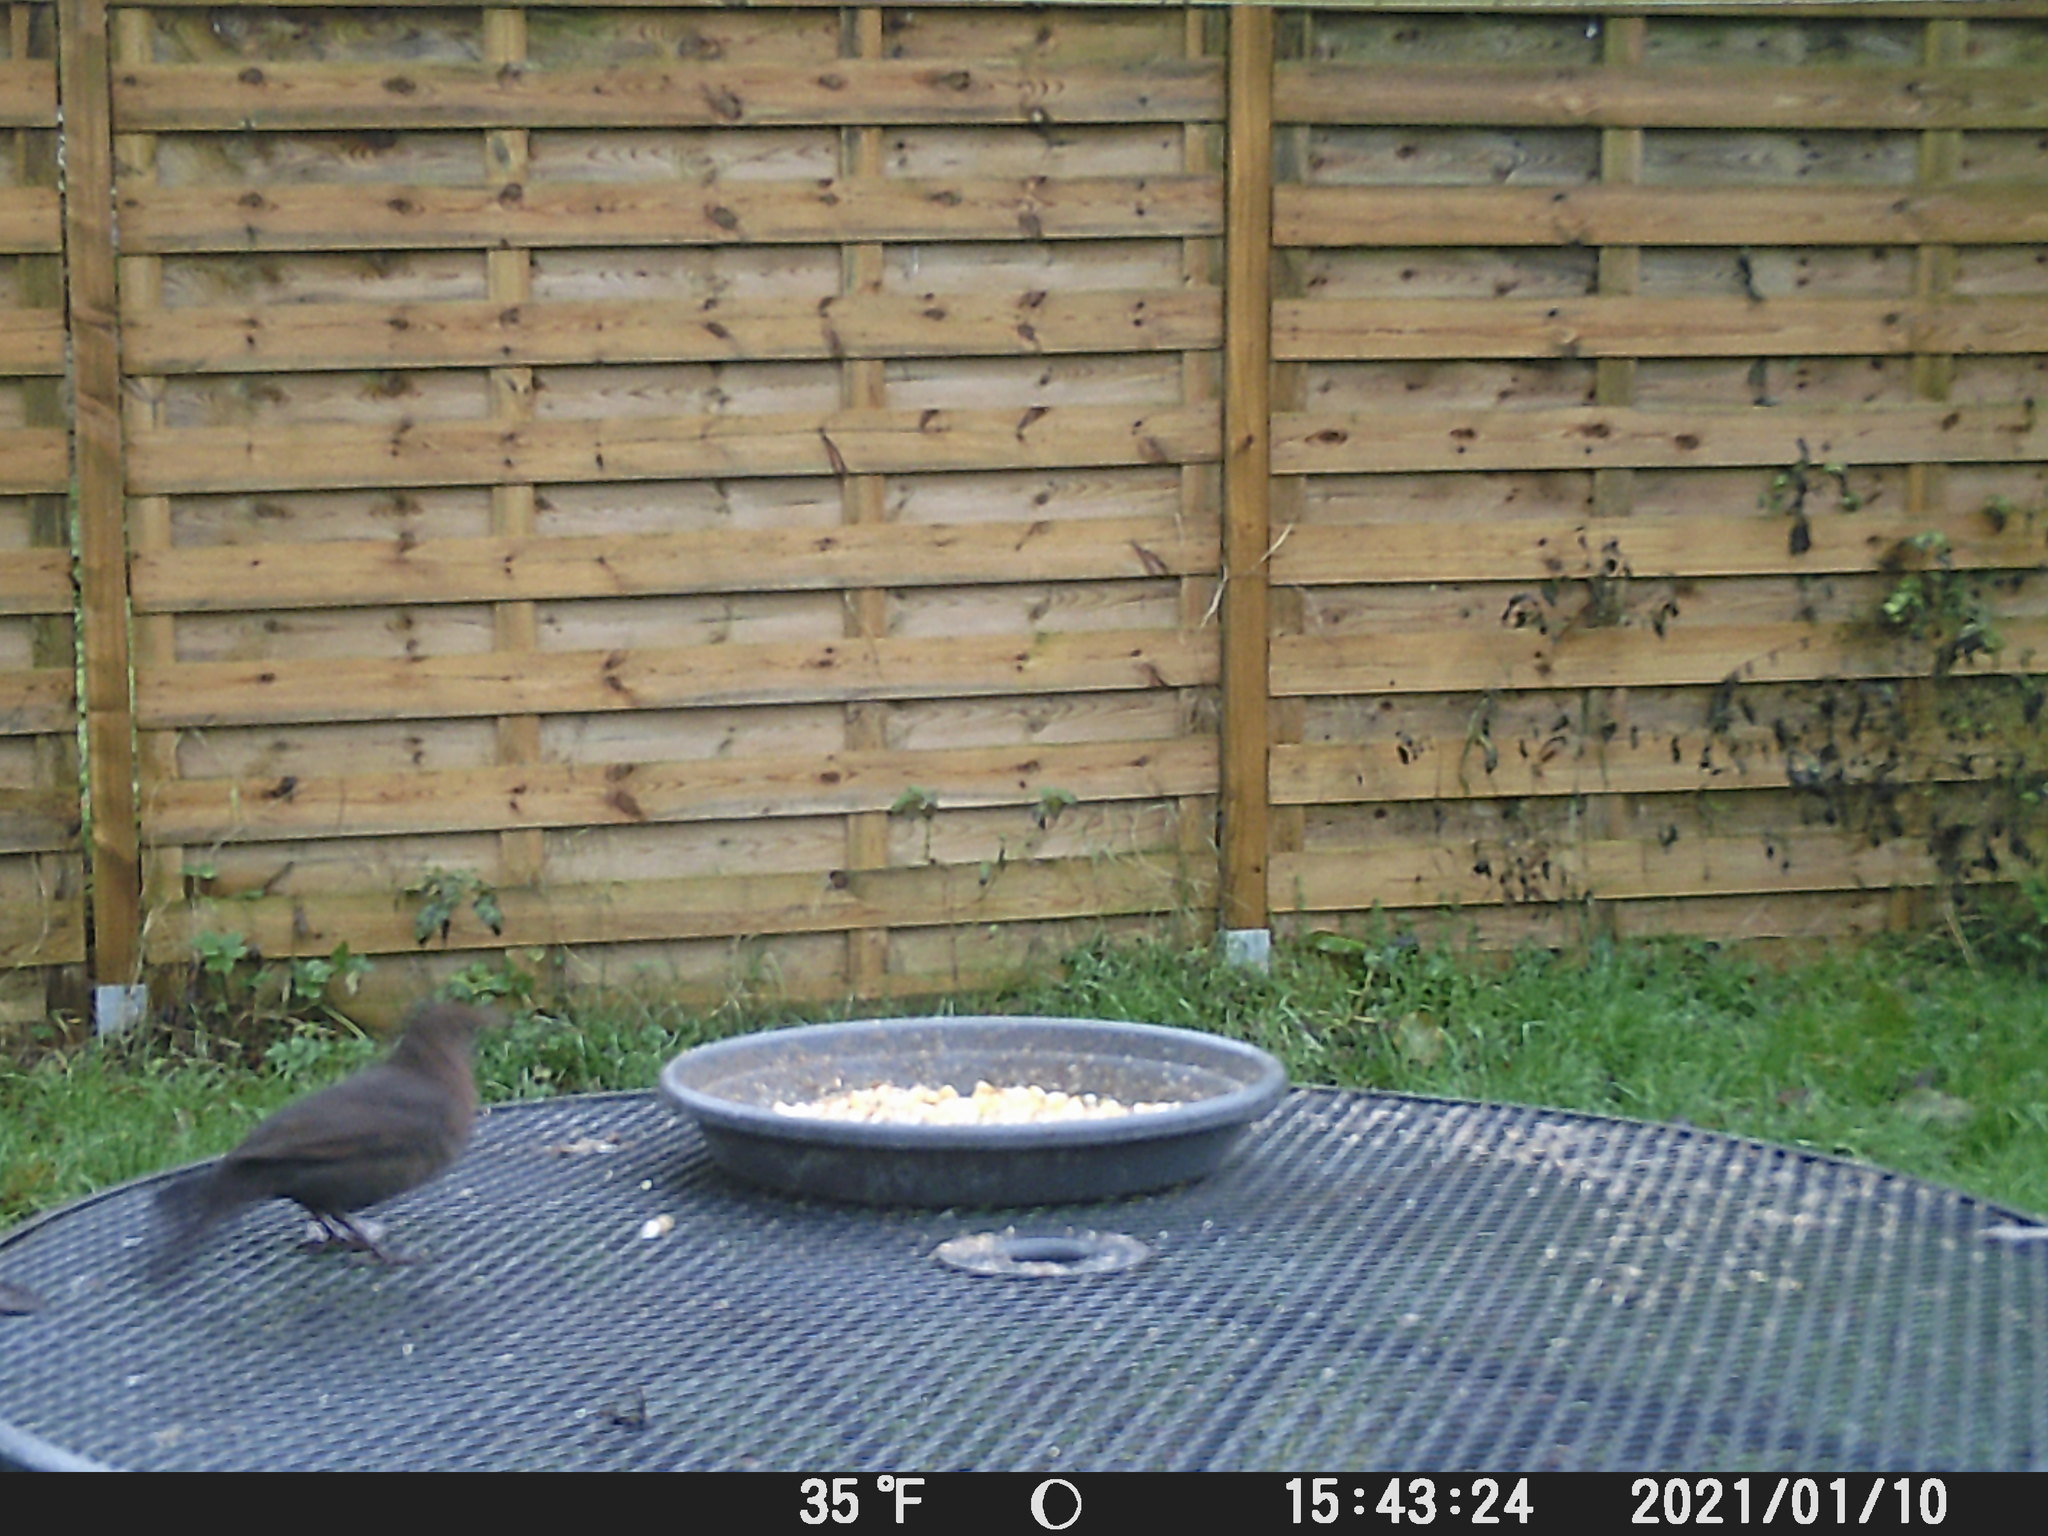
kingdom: Animalia
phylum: Chordata
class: Aves
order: Passeriformes
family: Turdidae
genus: Turdus
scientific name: Turdus merula
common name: Common blackbird
